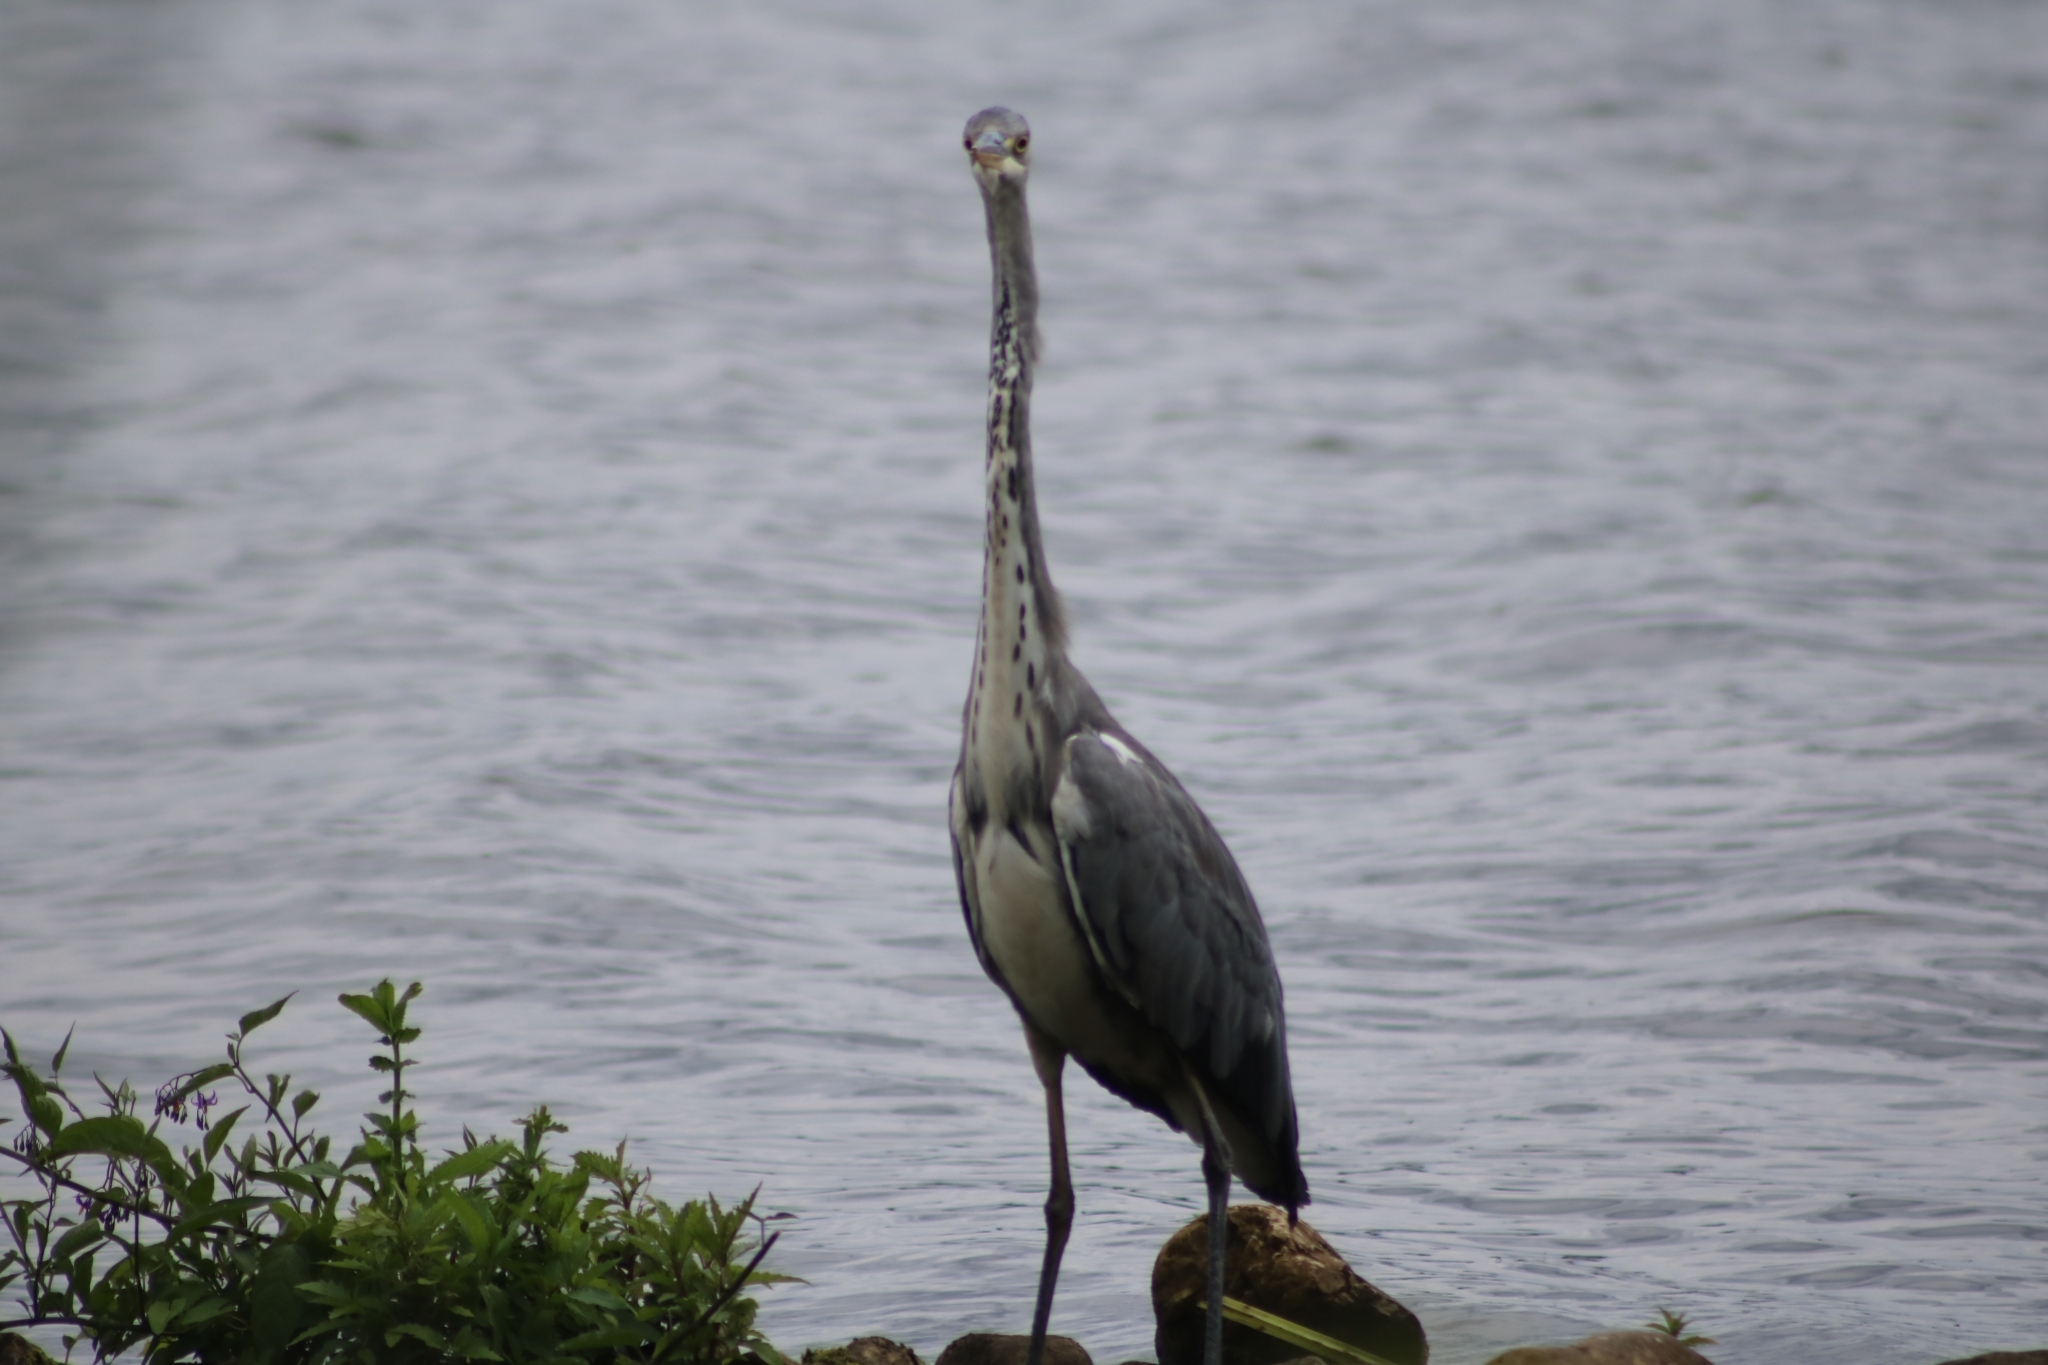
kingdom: Animalia
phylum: Chordata
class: Aves
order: Pelecaniformes
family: Ardeidae
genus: Ardea
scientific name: Ardea cinerea
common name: Grey heron
